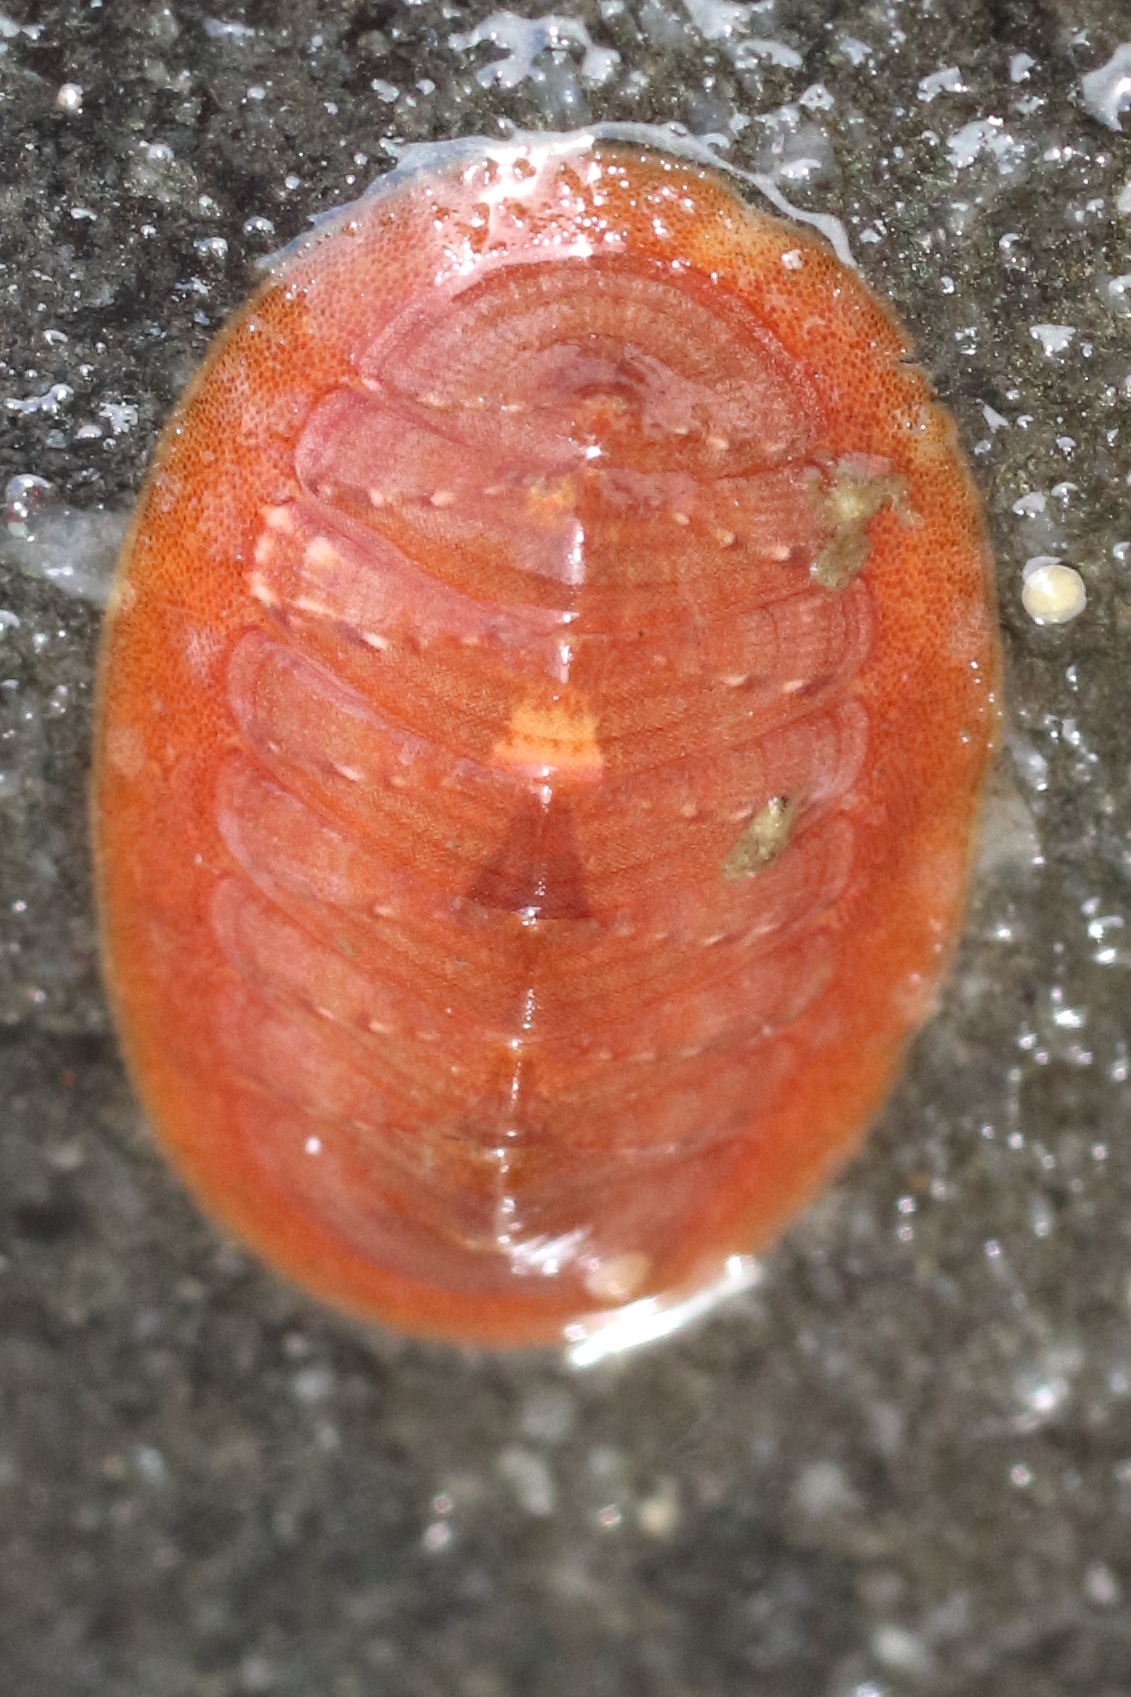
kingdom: Animalia
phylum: Mollusca
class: Polyplacophora
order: Chitonida
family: Ischnochitonidae
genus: Lepidozona
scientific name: Lepidozona interstincta
